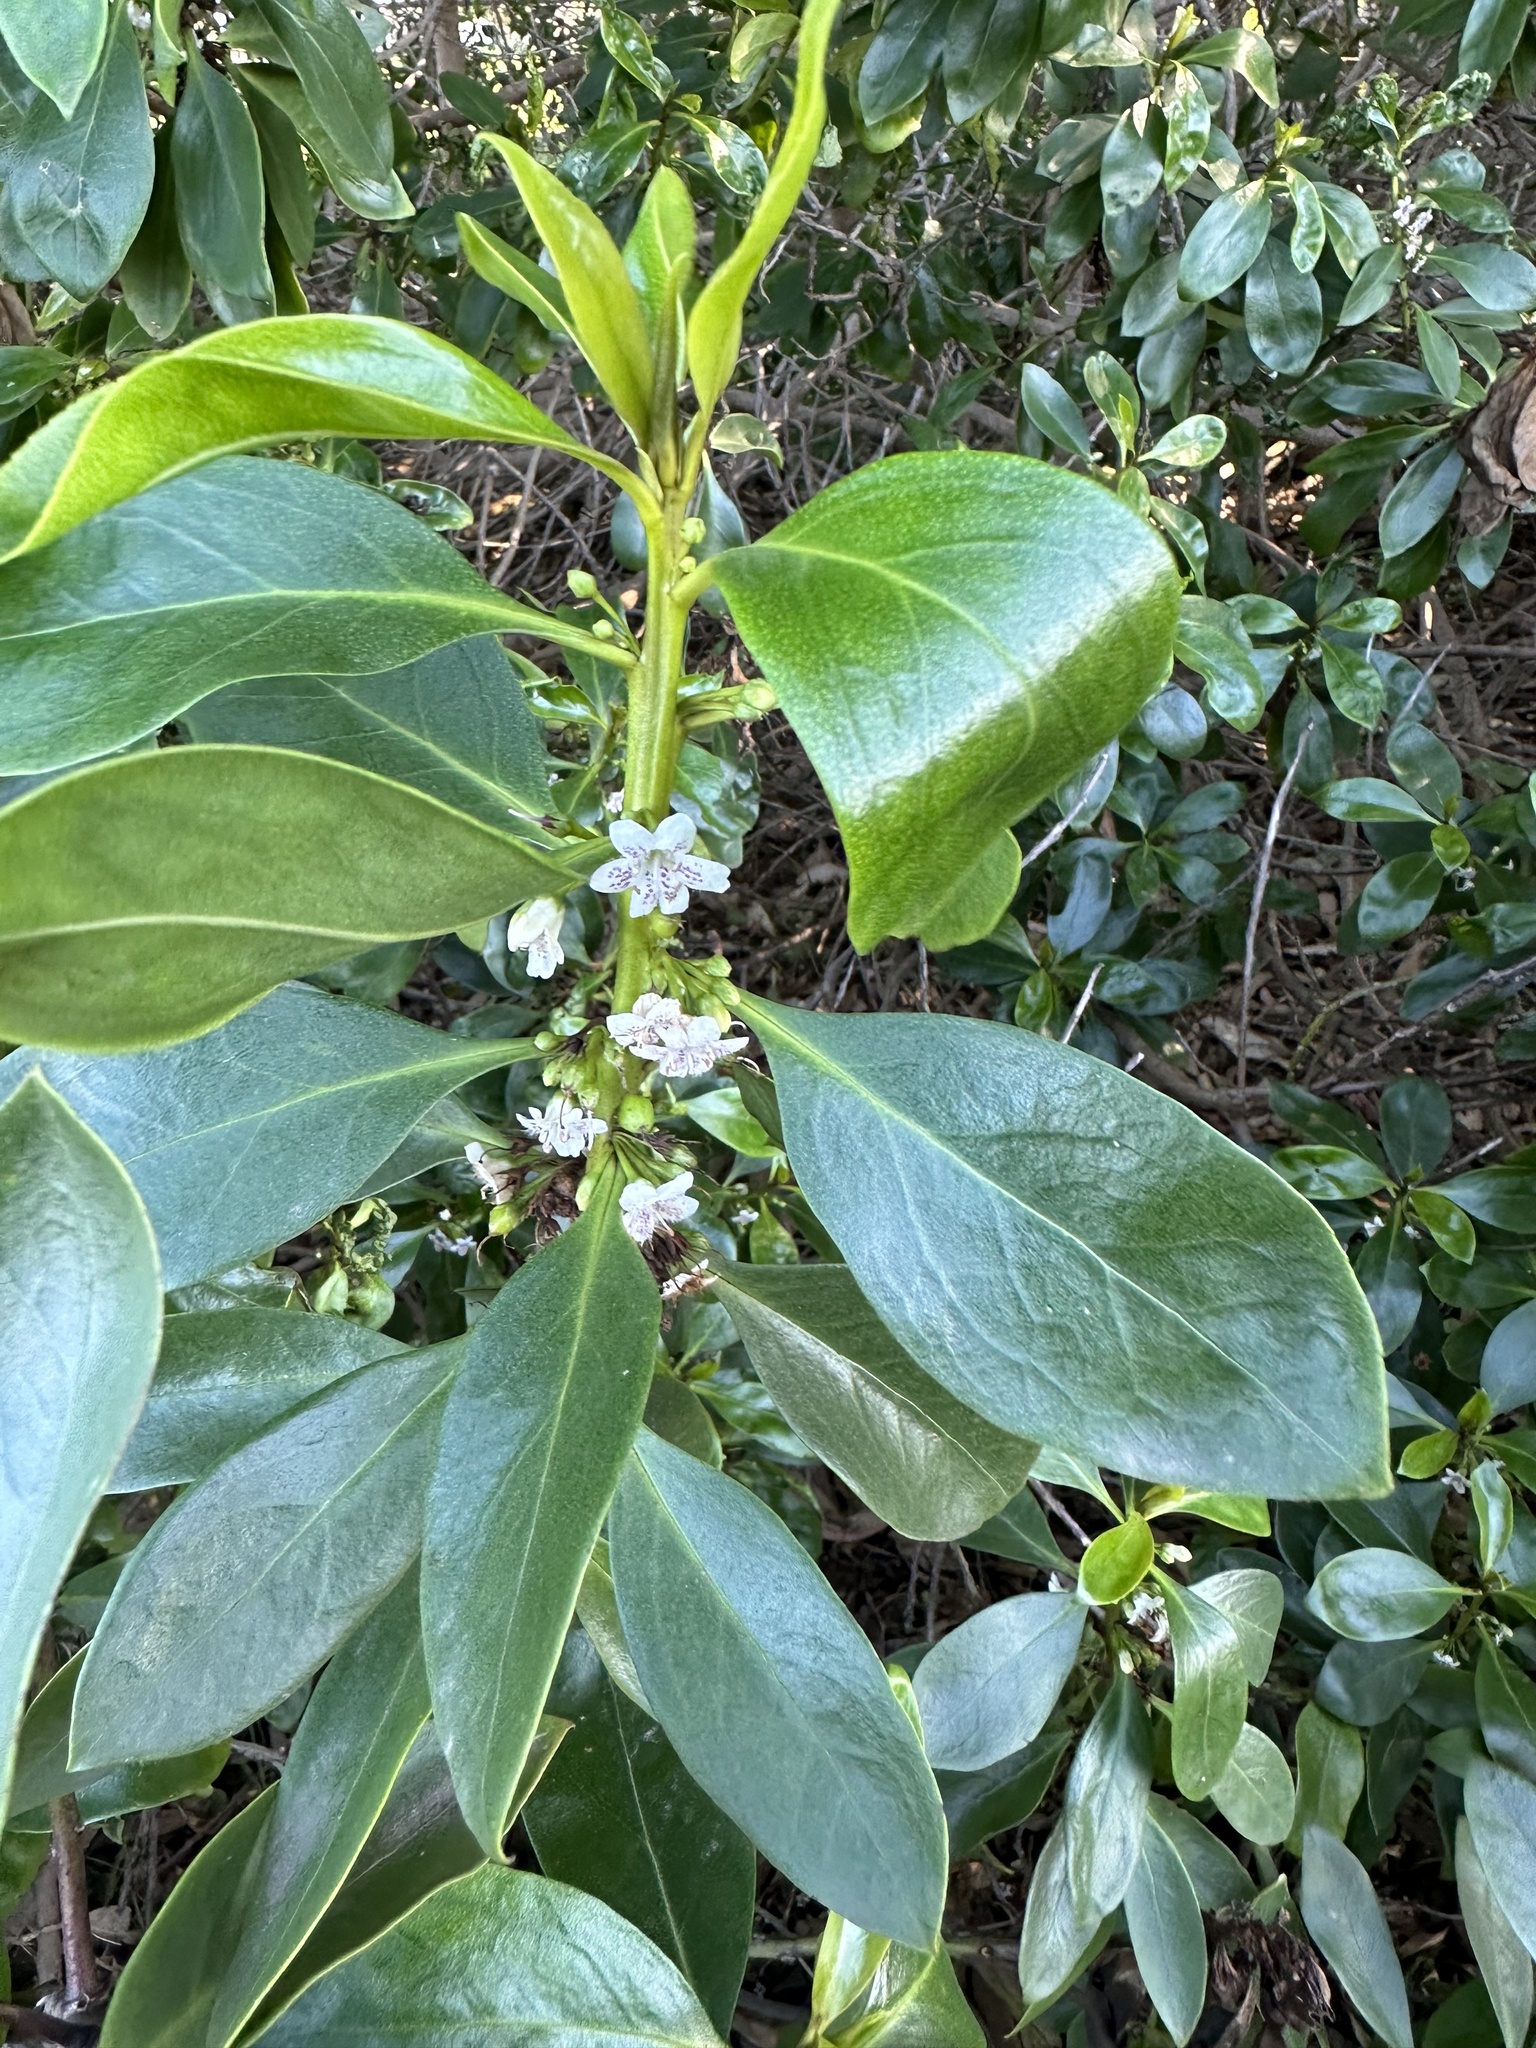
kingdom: Plantae
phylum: Tracheophyta
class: Magnoliopsida
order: Lamiales
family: Scrophulariaceae
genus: Myoporum
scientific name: Myoporum laetum
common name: Ngaio tree
